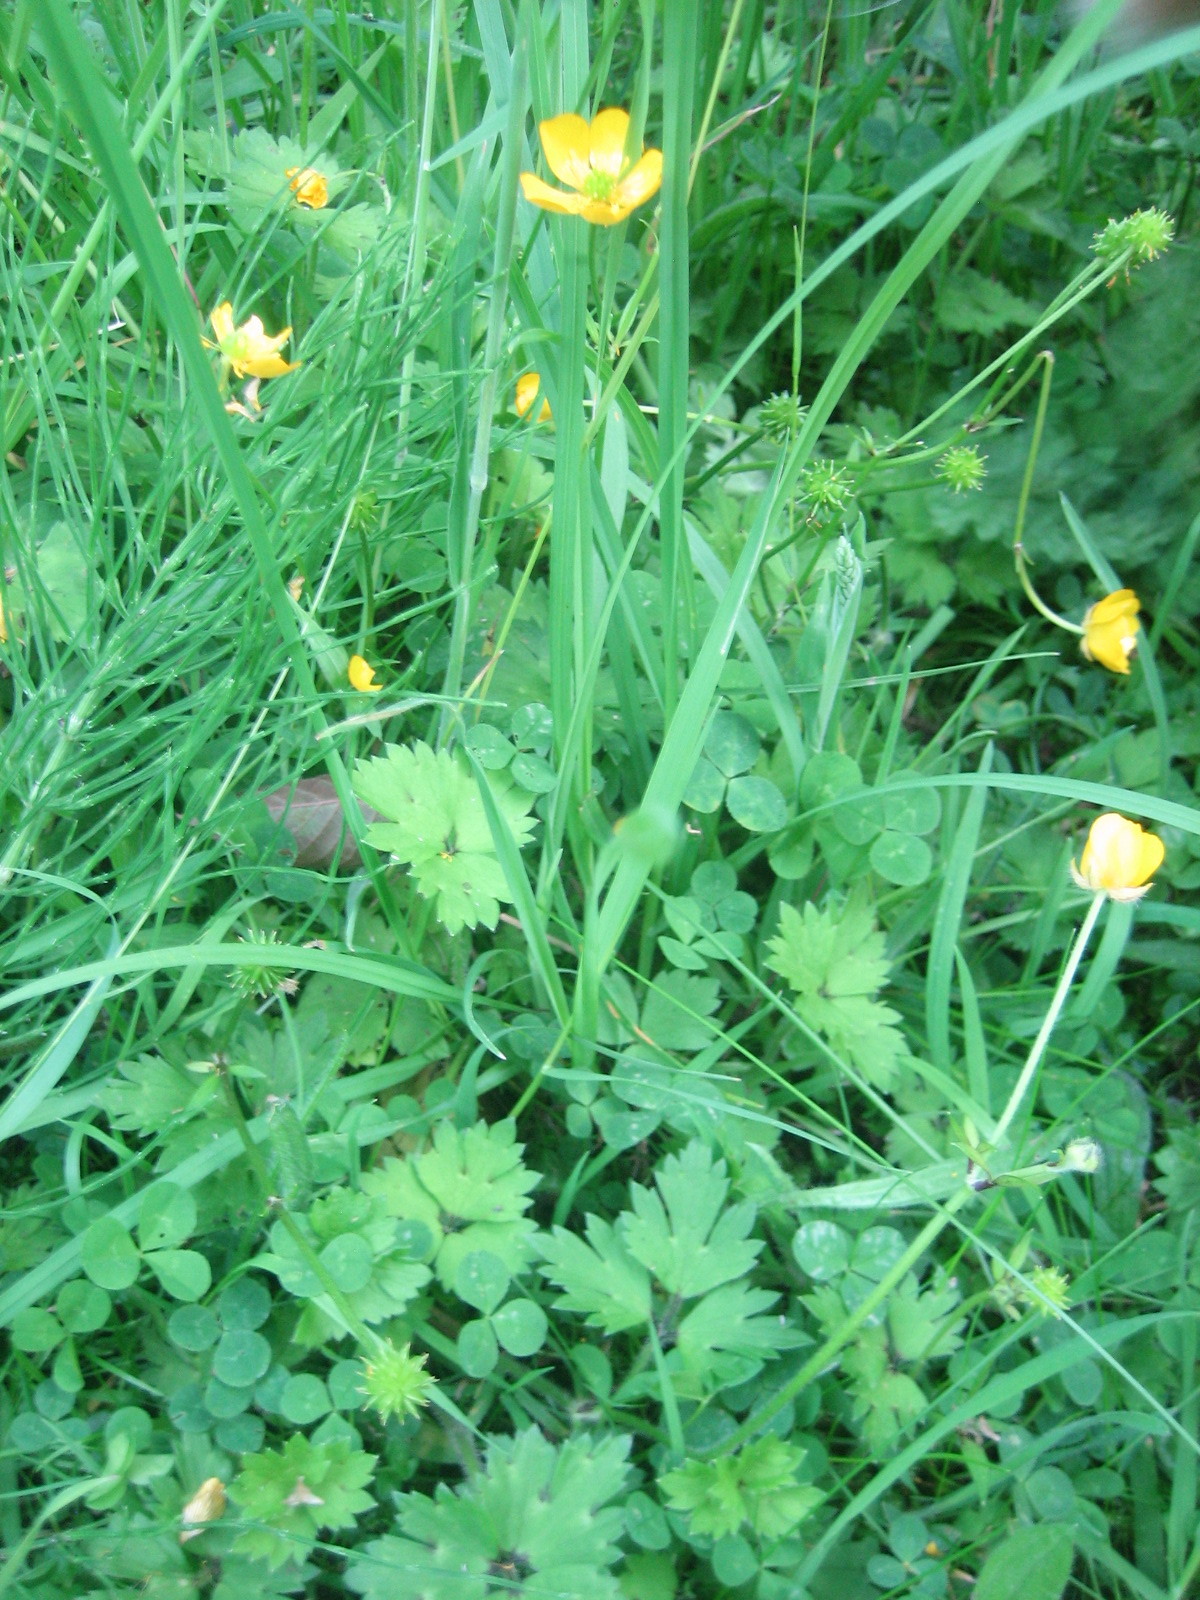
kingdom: Plantae
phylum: Tracheophyta
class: Magnoliopsida
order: Ranunculales
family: Ranunculaceae
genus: Ranunculus
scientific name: Ranunculus repens
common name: Creeping buttercup
